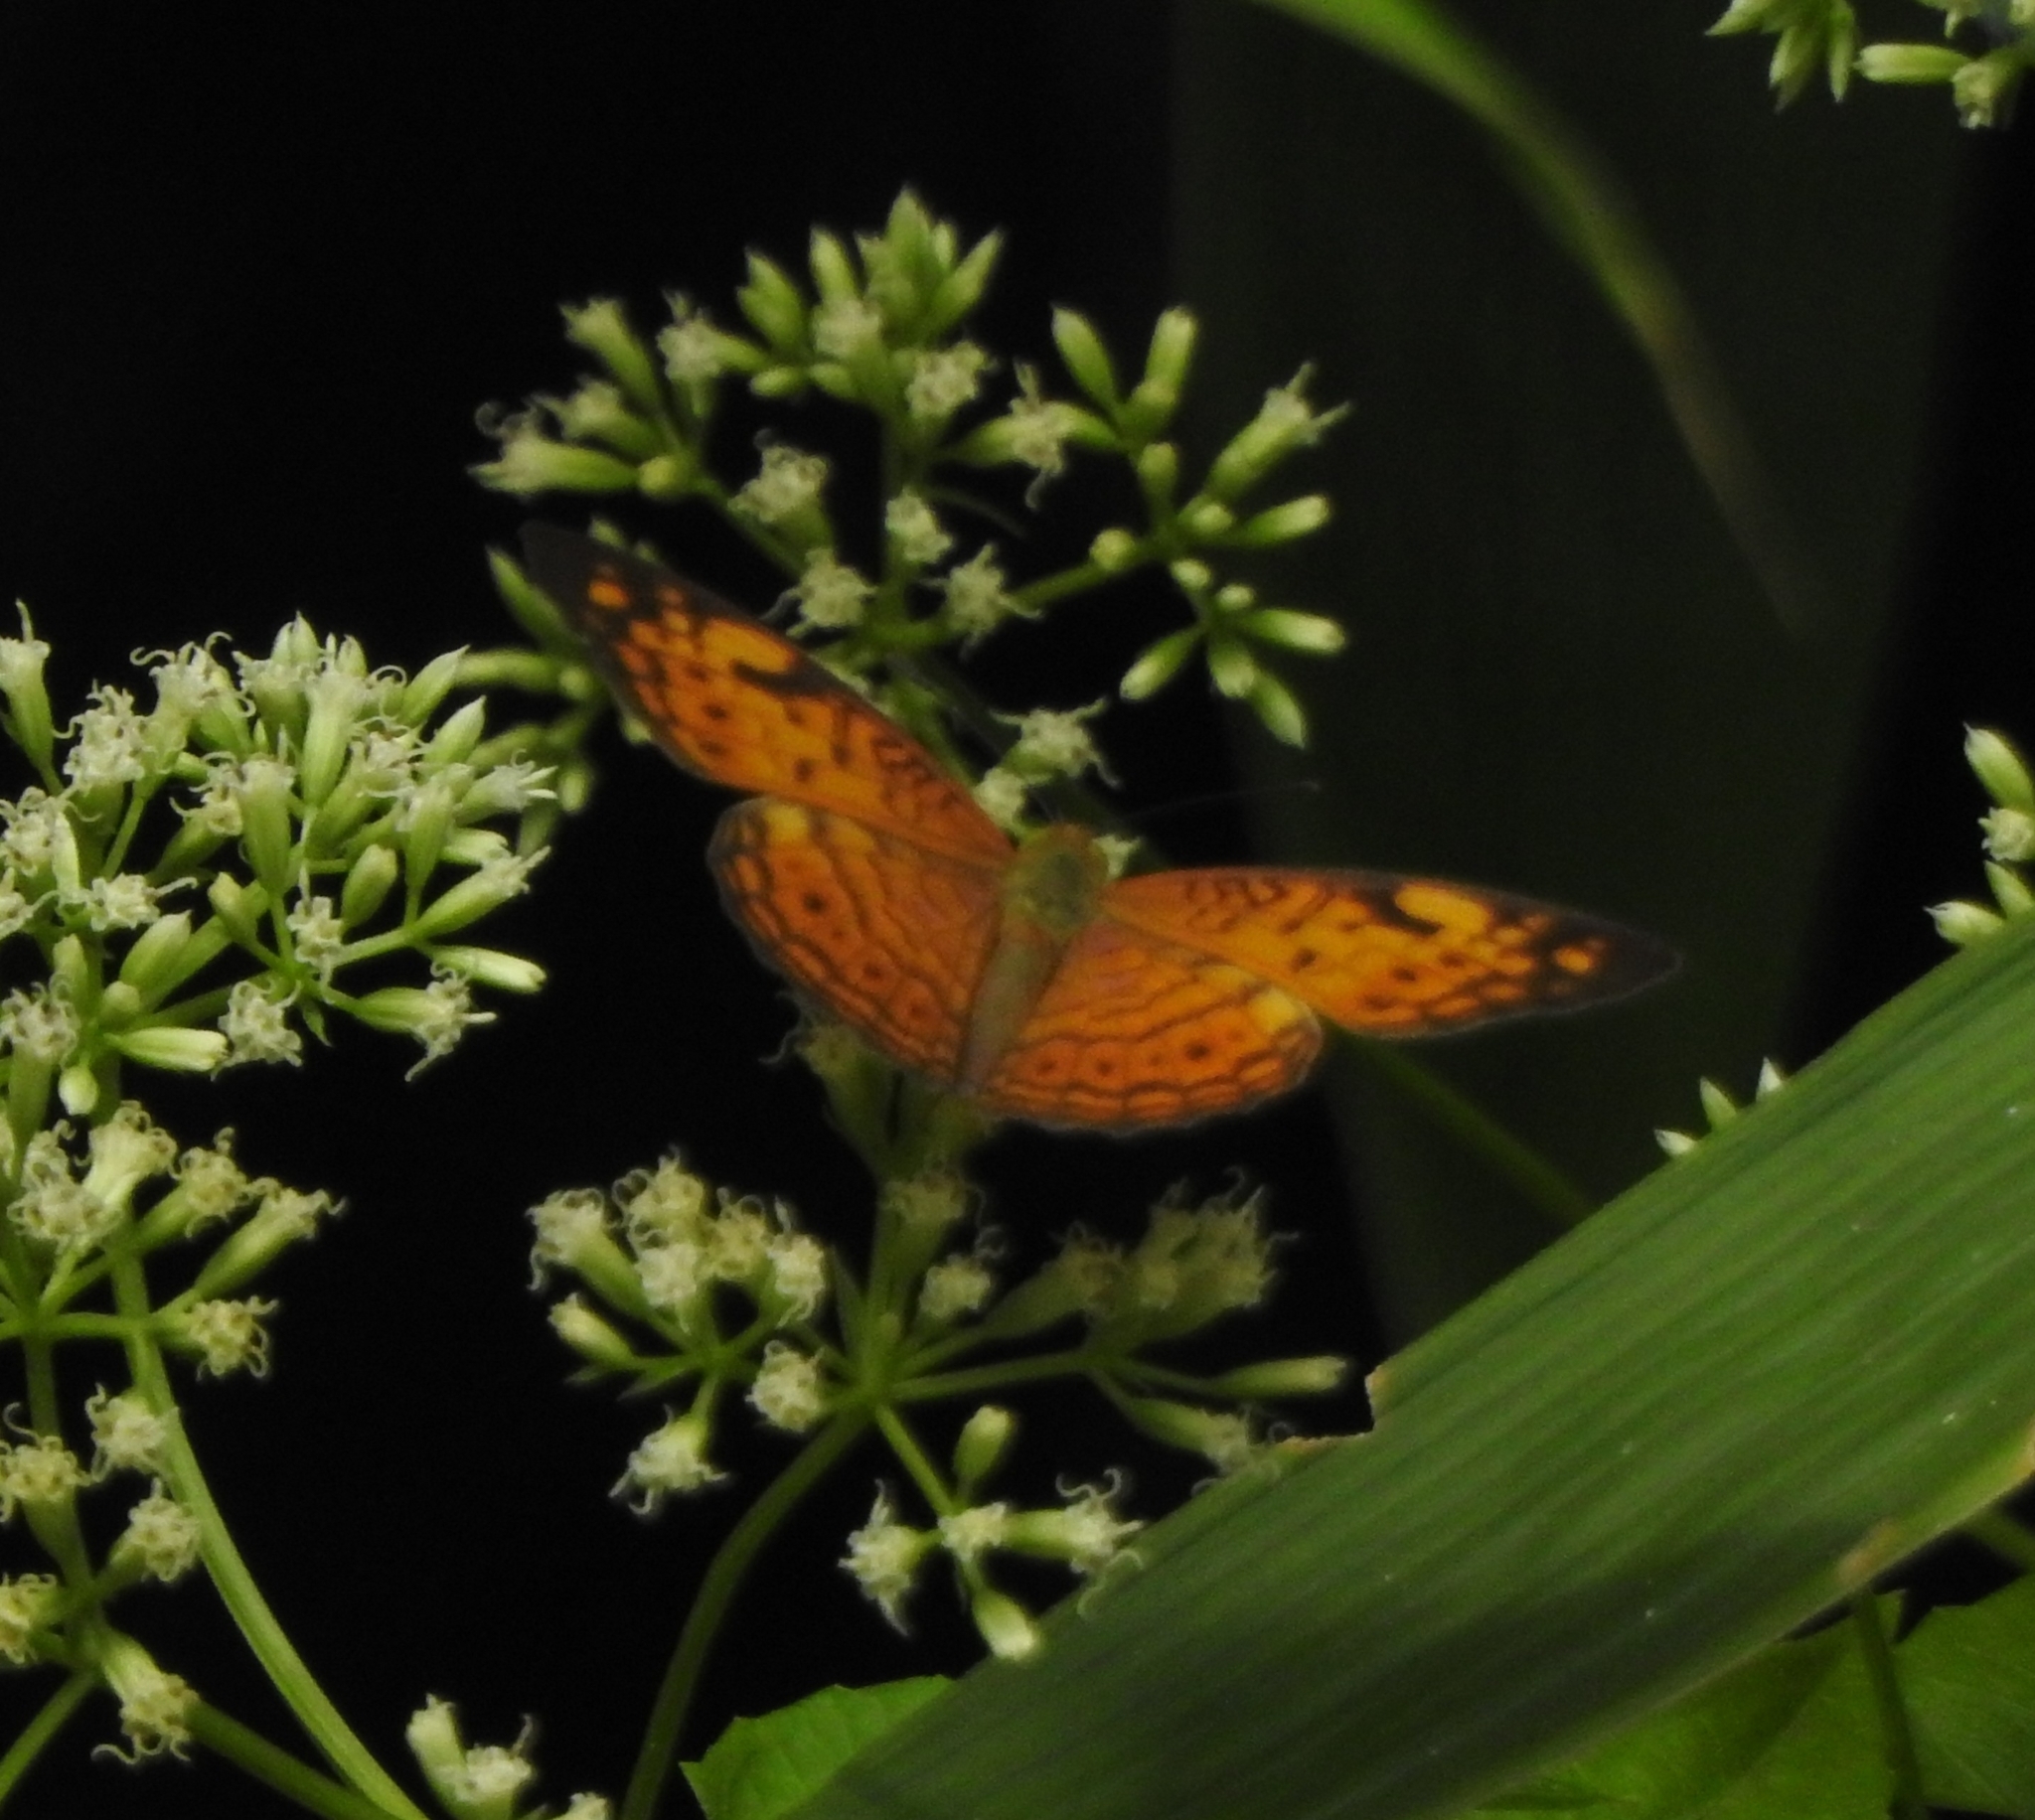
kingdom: Animalia
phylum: Arthropoda
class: Insecta
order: Lepidoptera
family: Nymphalidae
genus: Phalanta
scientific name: Phalanta alcippe
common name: Small leopard
